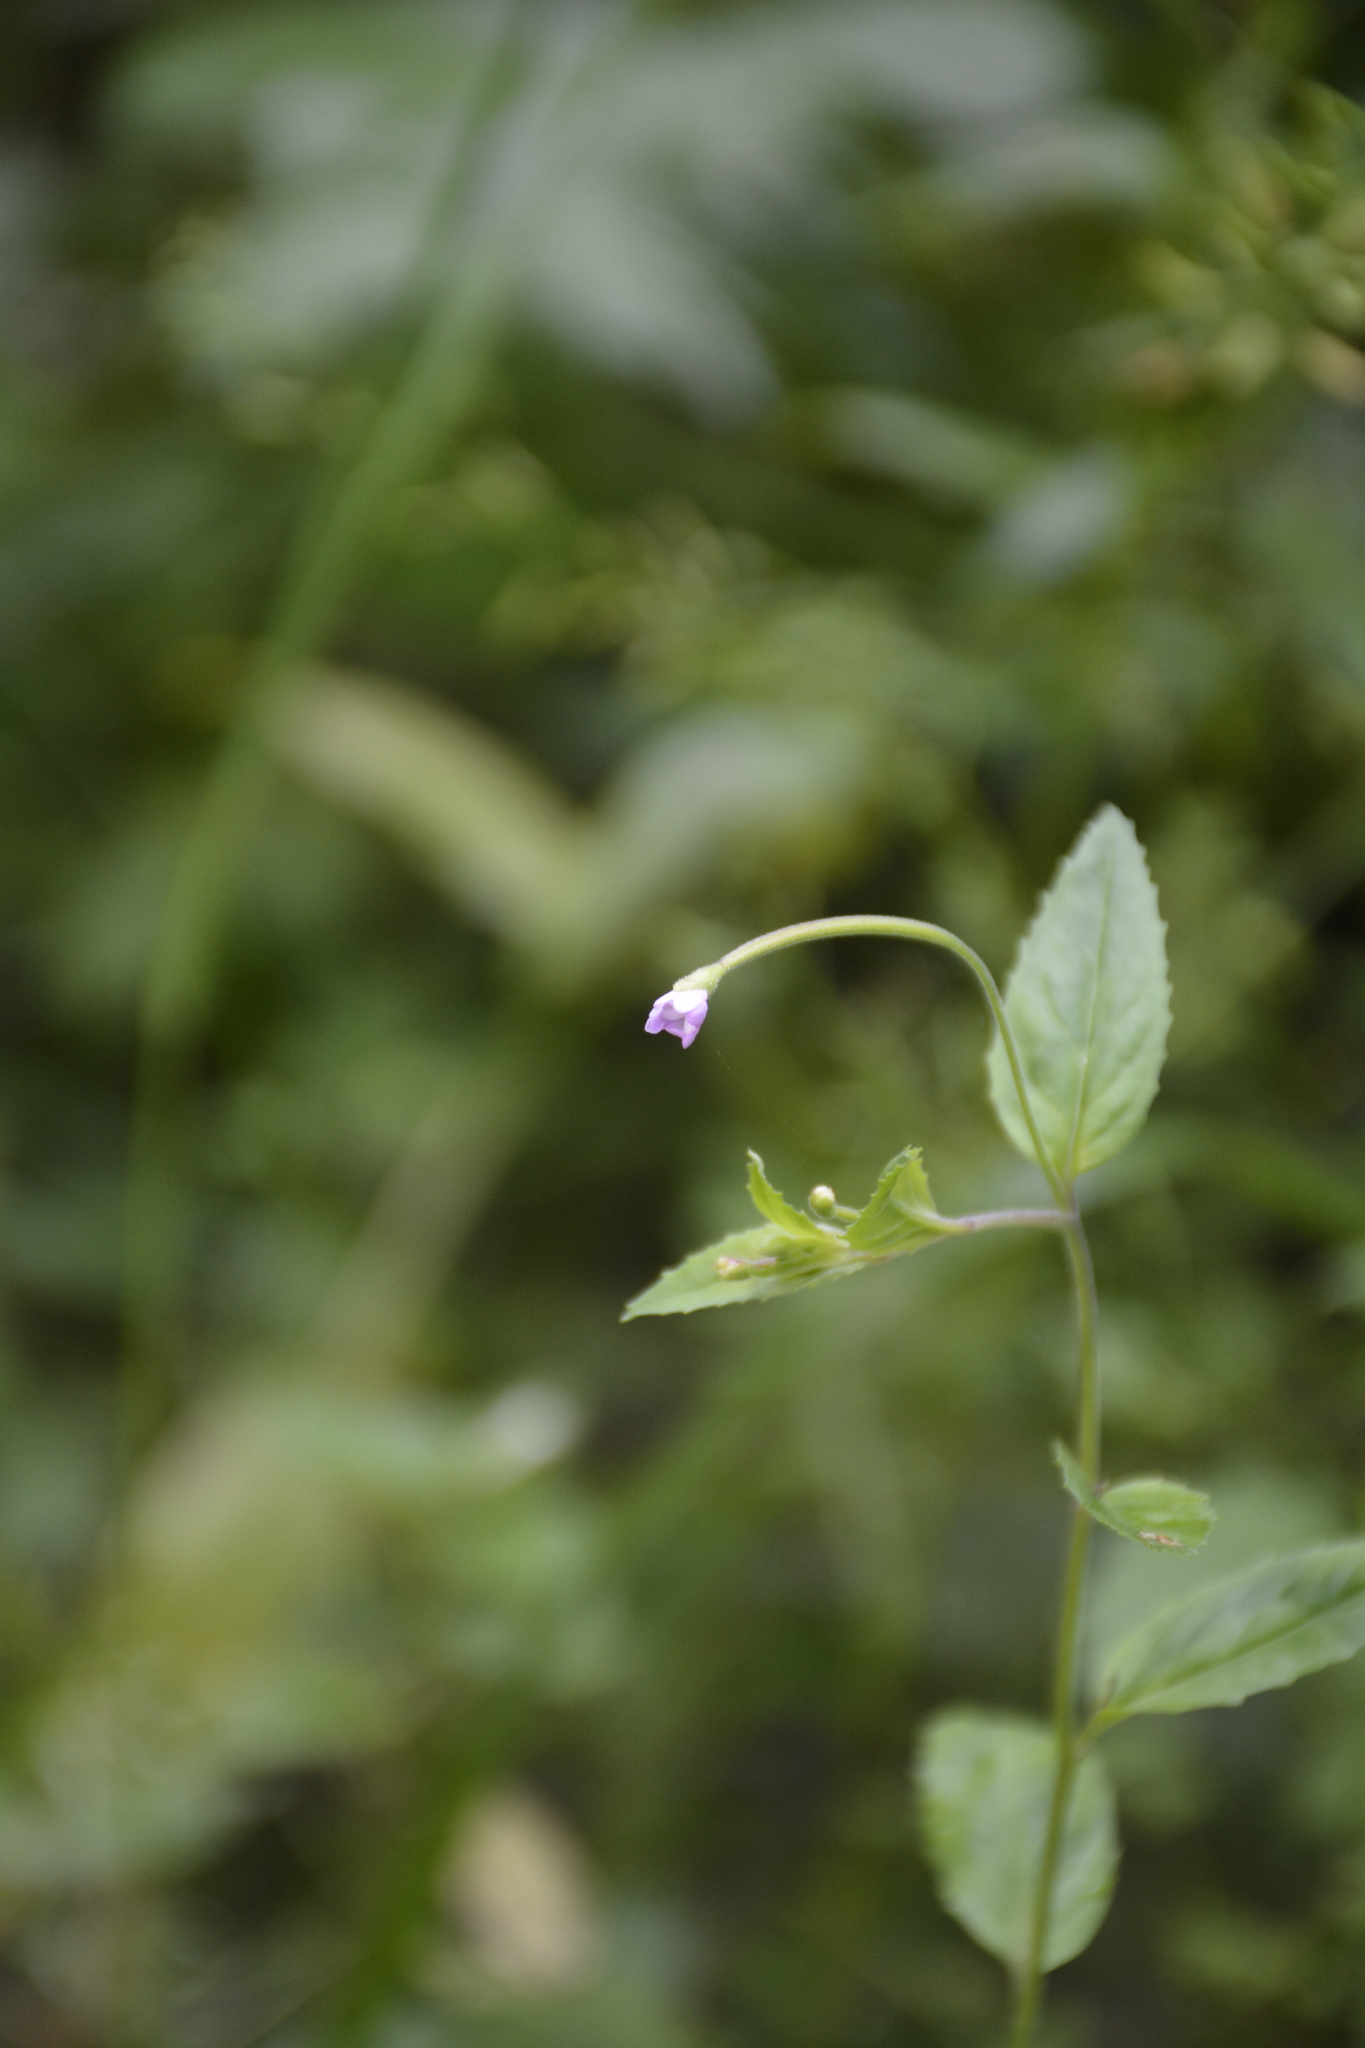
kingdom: Plantae
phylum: Tracheophyta
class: Magnoliopsida
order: Myrtales
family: Onagraceae
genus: Epilobium
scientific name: Epilobium montanum
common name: Broad-leaved willowherb
